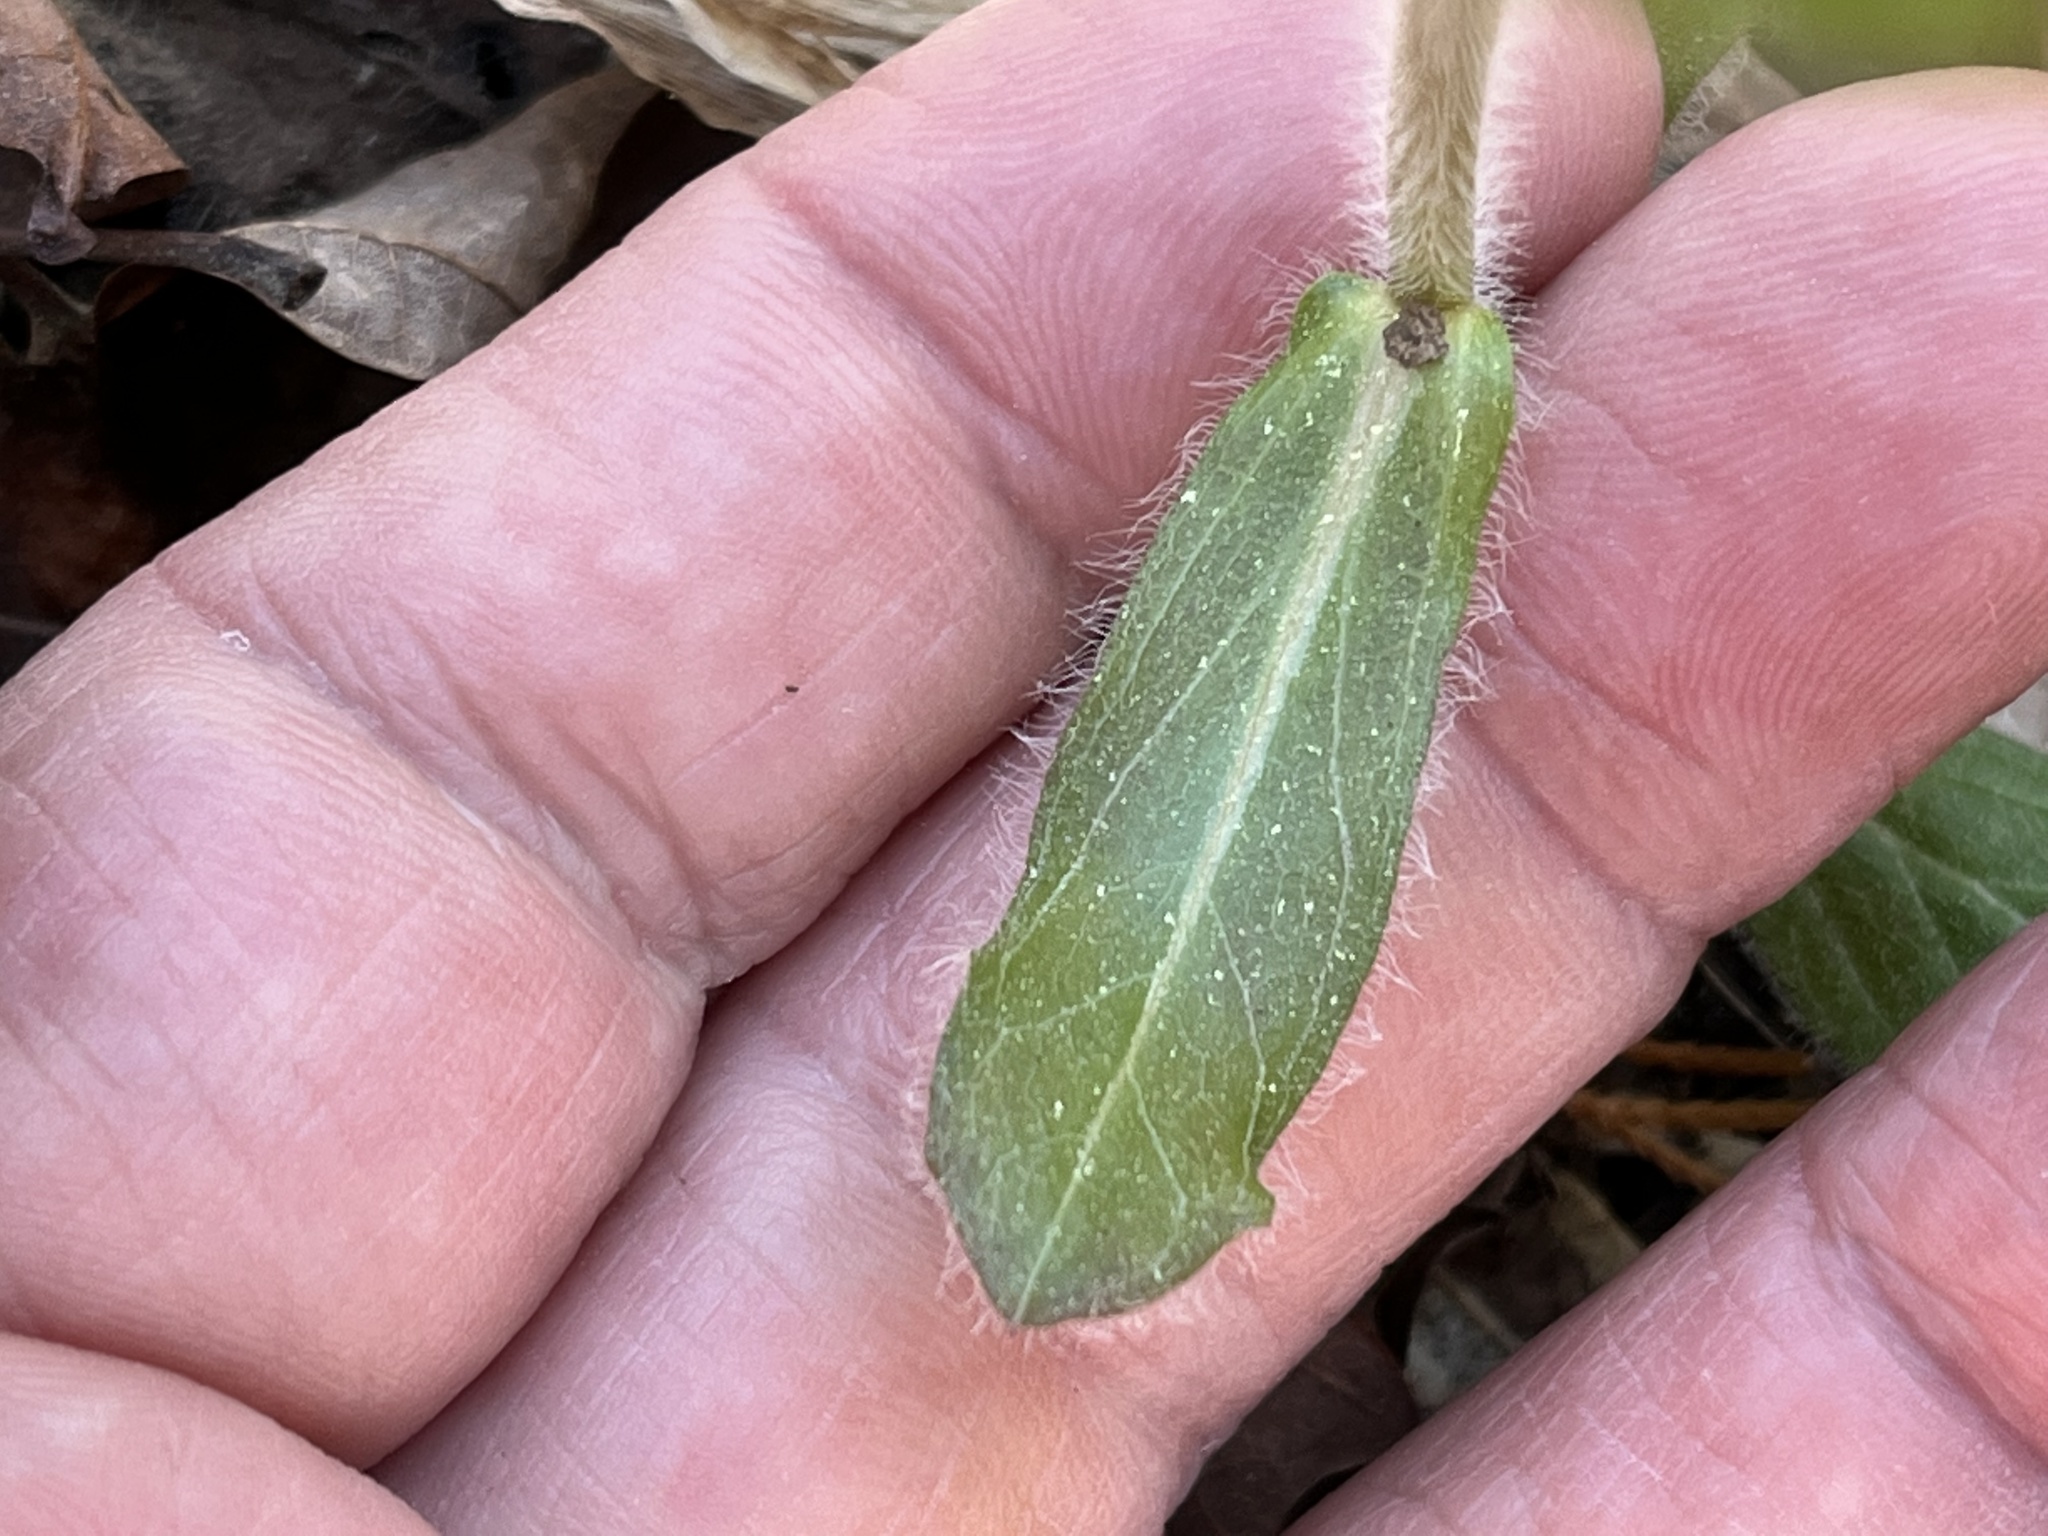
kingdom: Plantae
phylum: Tracheophyta
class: Magnoliopsida
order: Asterales
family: Asteraceae
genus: Erigeron
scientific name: Erigeron pulchellus
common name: Hairy fleabane
